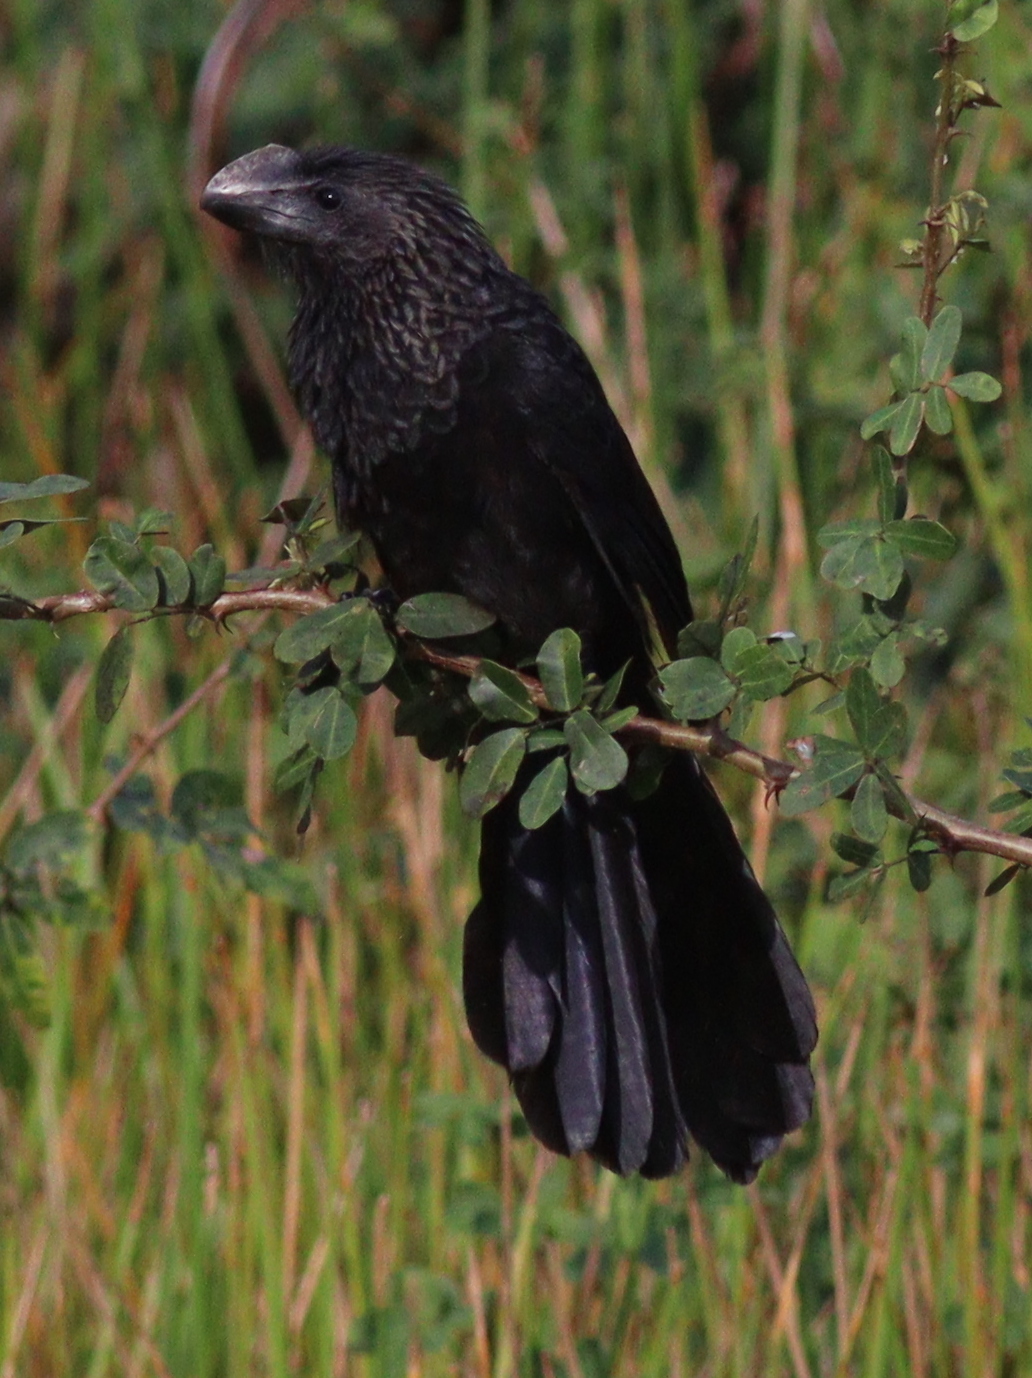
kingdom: Animalia
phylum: Chordata
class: Aves
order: Cuculiformes
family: Cuculidae
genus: Crotophaga
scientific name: Crotophaga ani
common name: Smooth-billed ani
